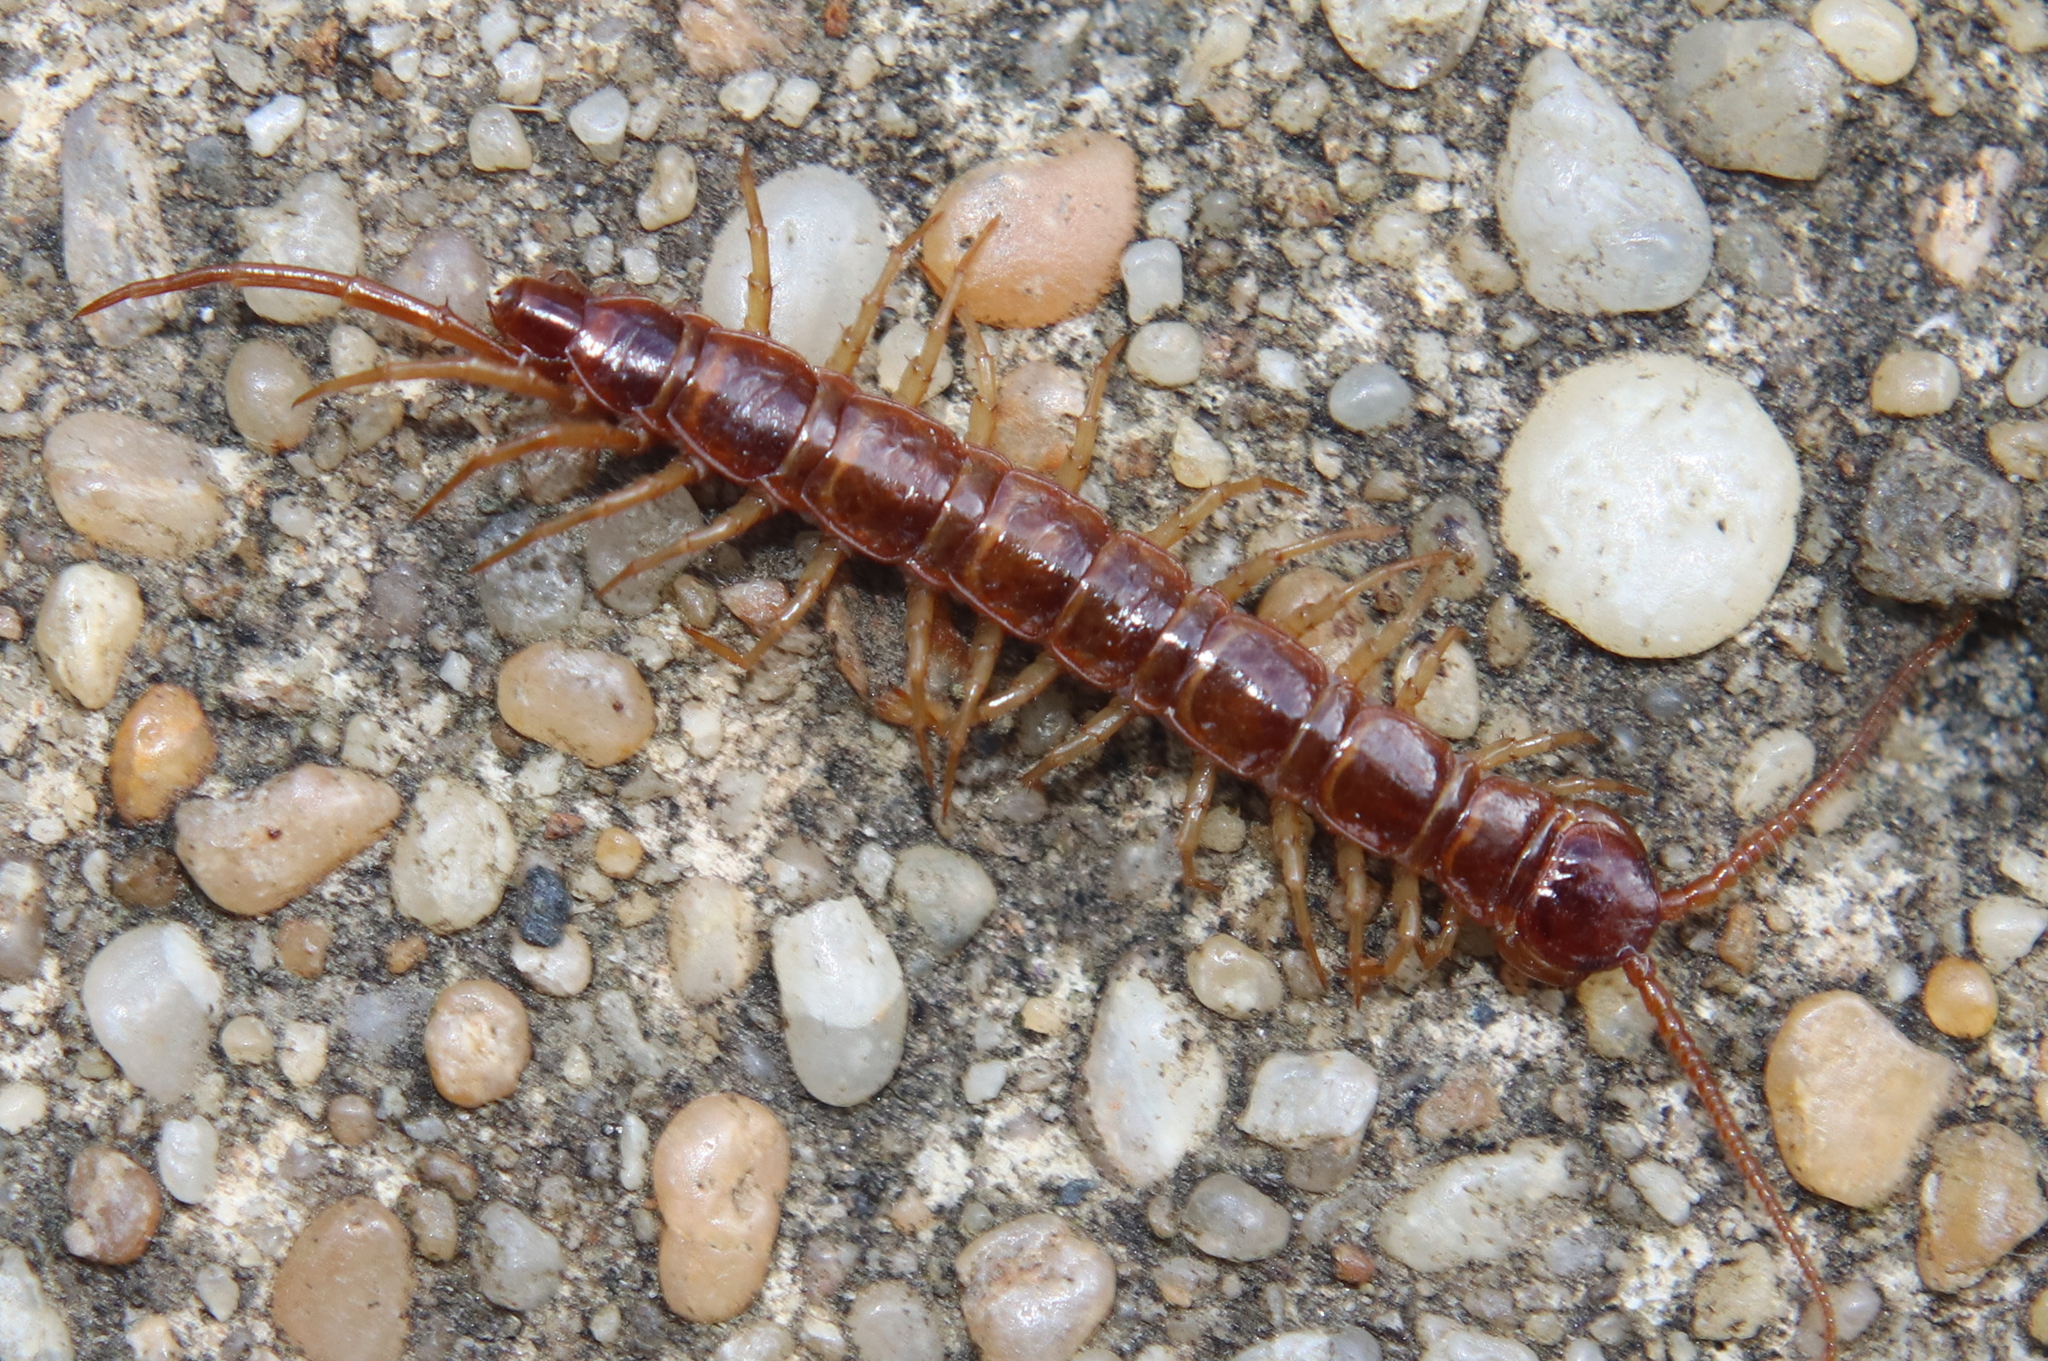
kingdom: Animalia
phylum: Arthropoda
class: Chilopoda
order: Lithobiomorpha
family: Lithobiidae
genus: Lithobius
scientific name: Lithobius forficatus
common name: Centipede
